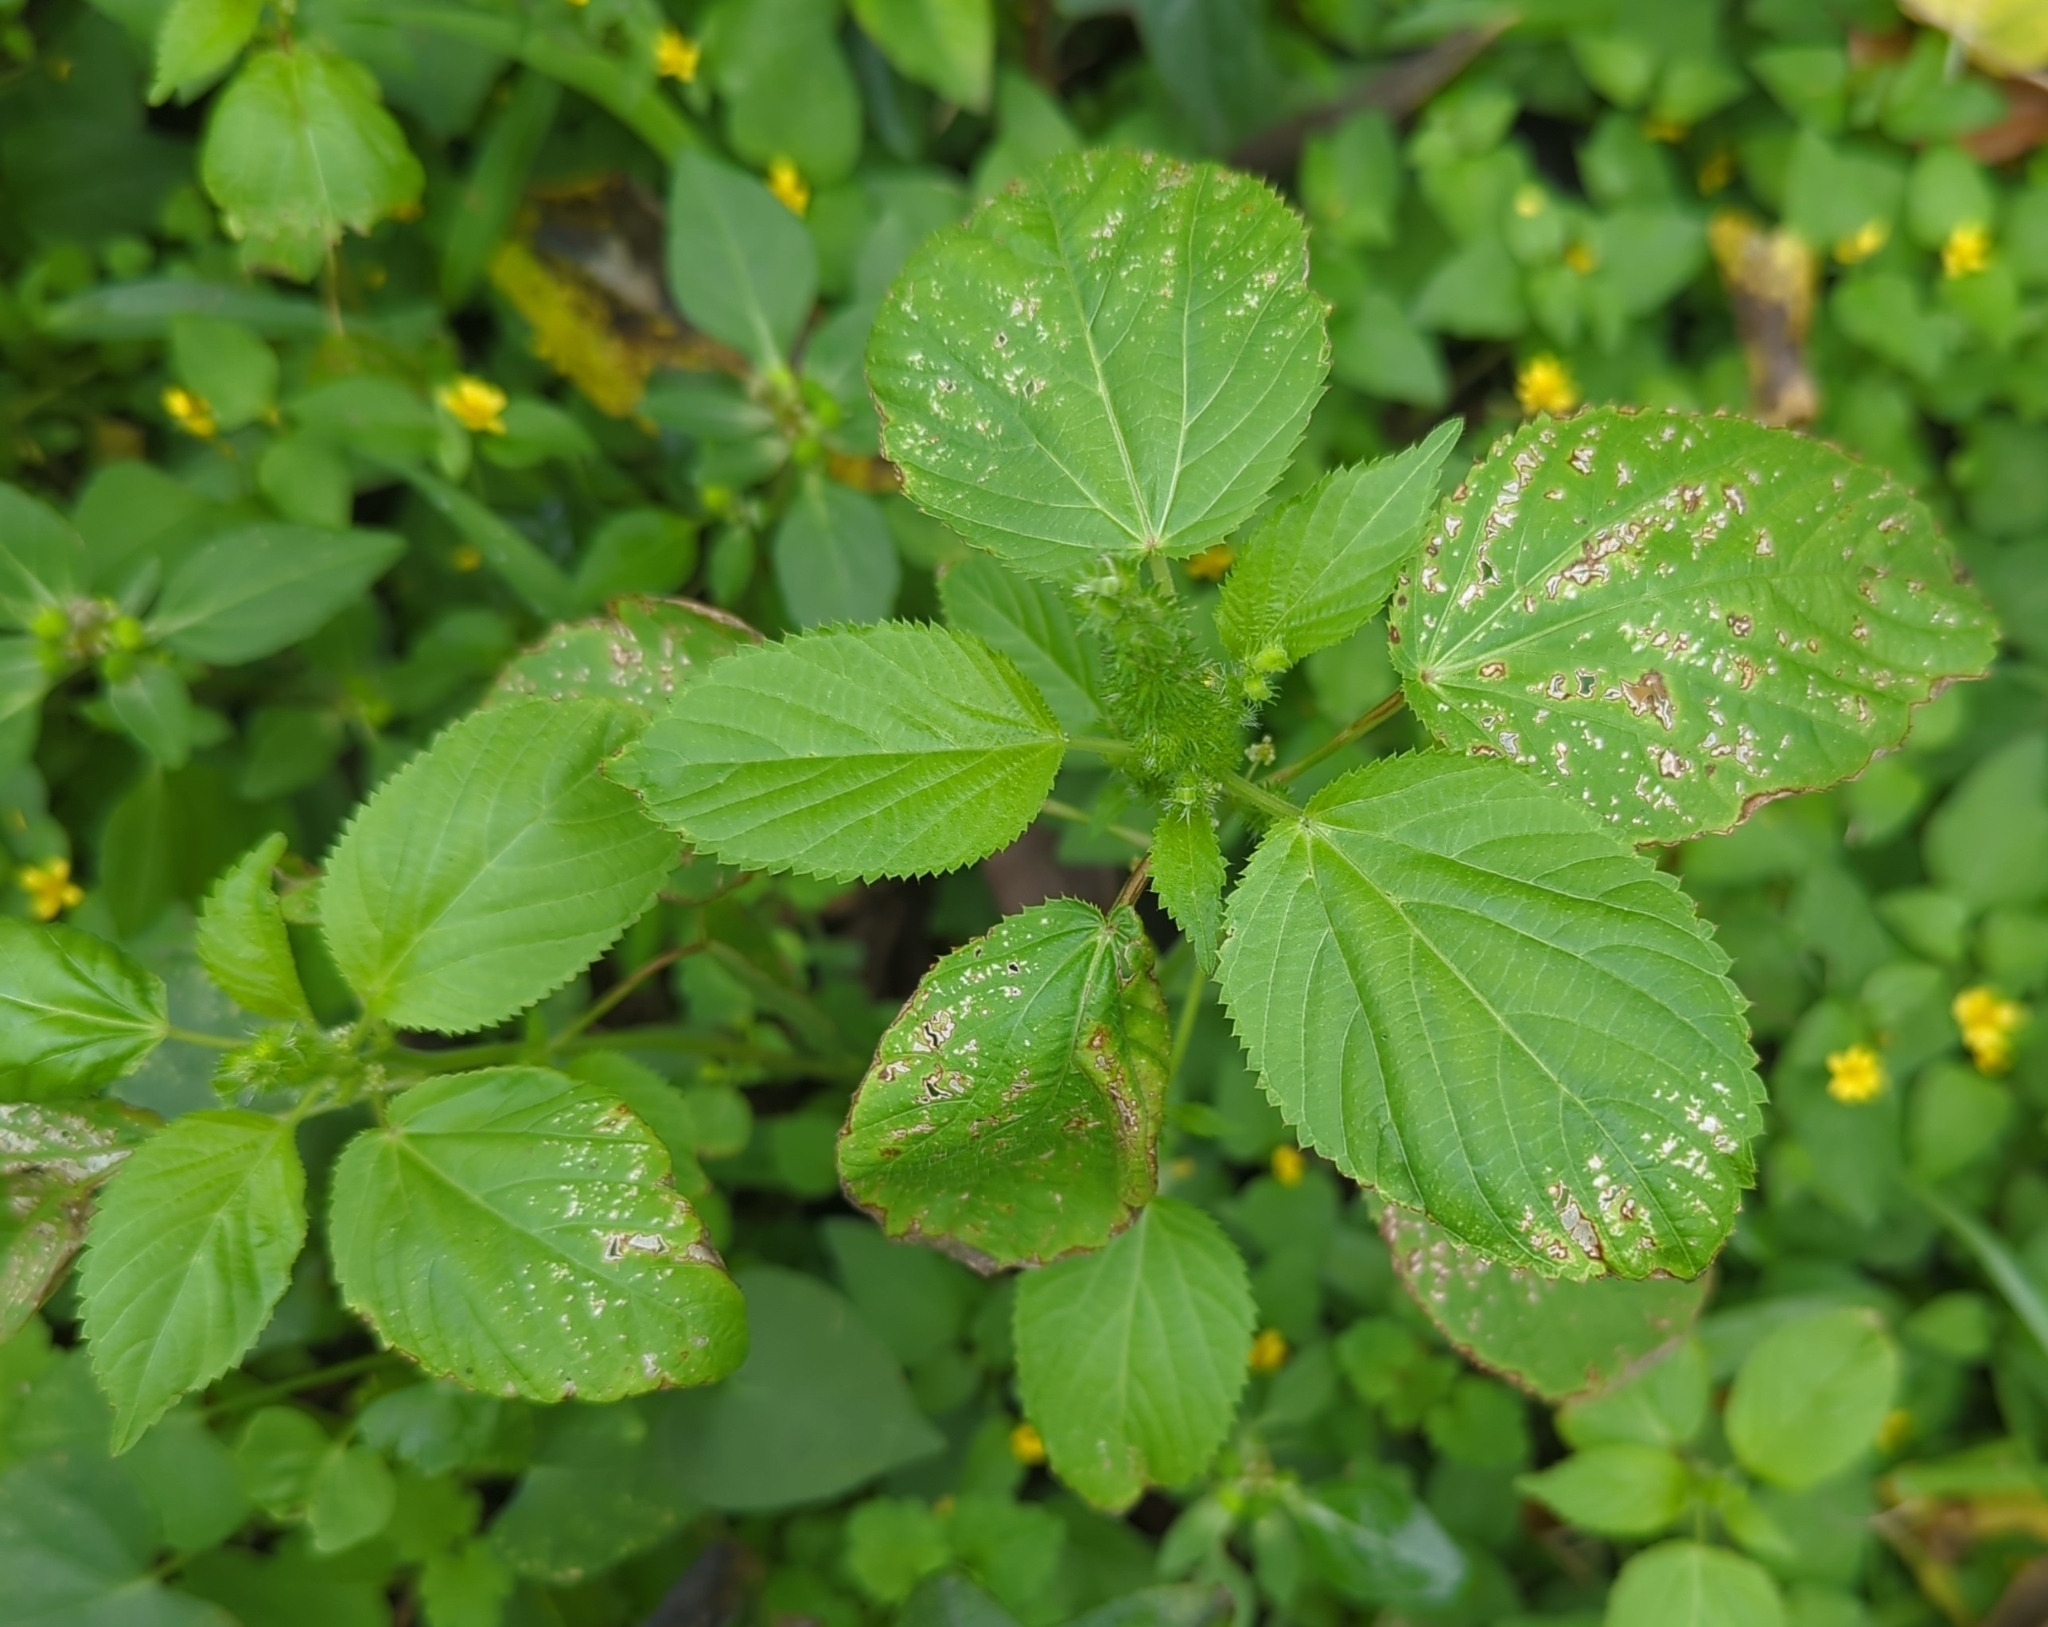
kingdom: Plantae
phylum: Tracheophyta
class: Magnoliopsida
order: Malpighiales
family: Euphorbiaceae
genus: Acalypha
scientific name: Acalypha ostryifolia
